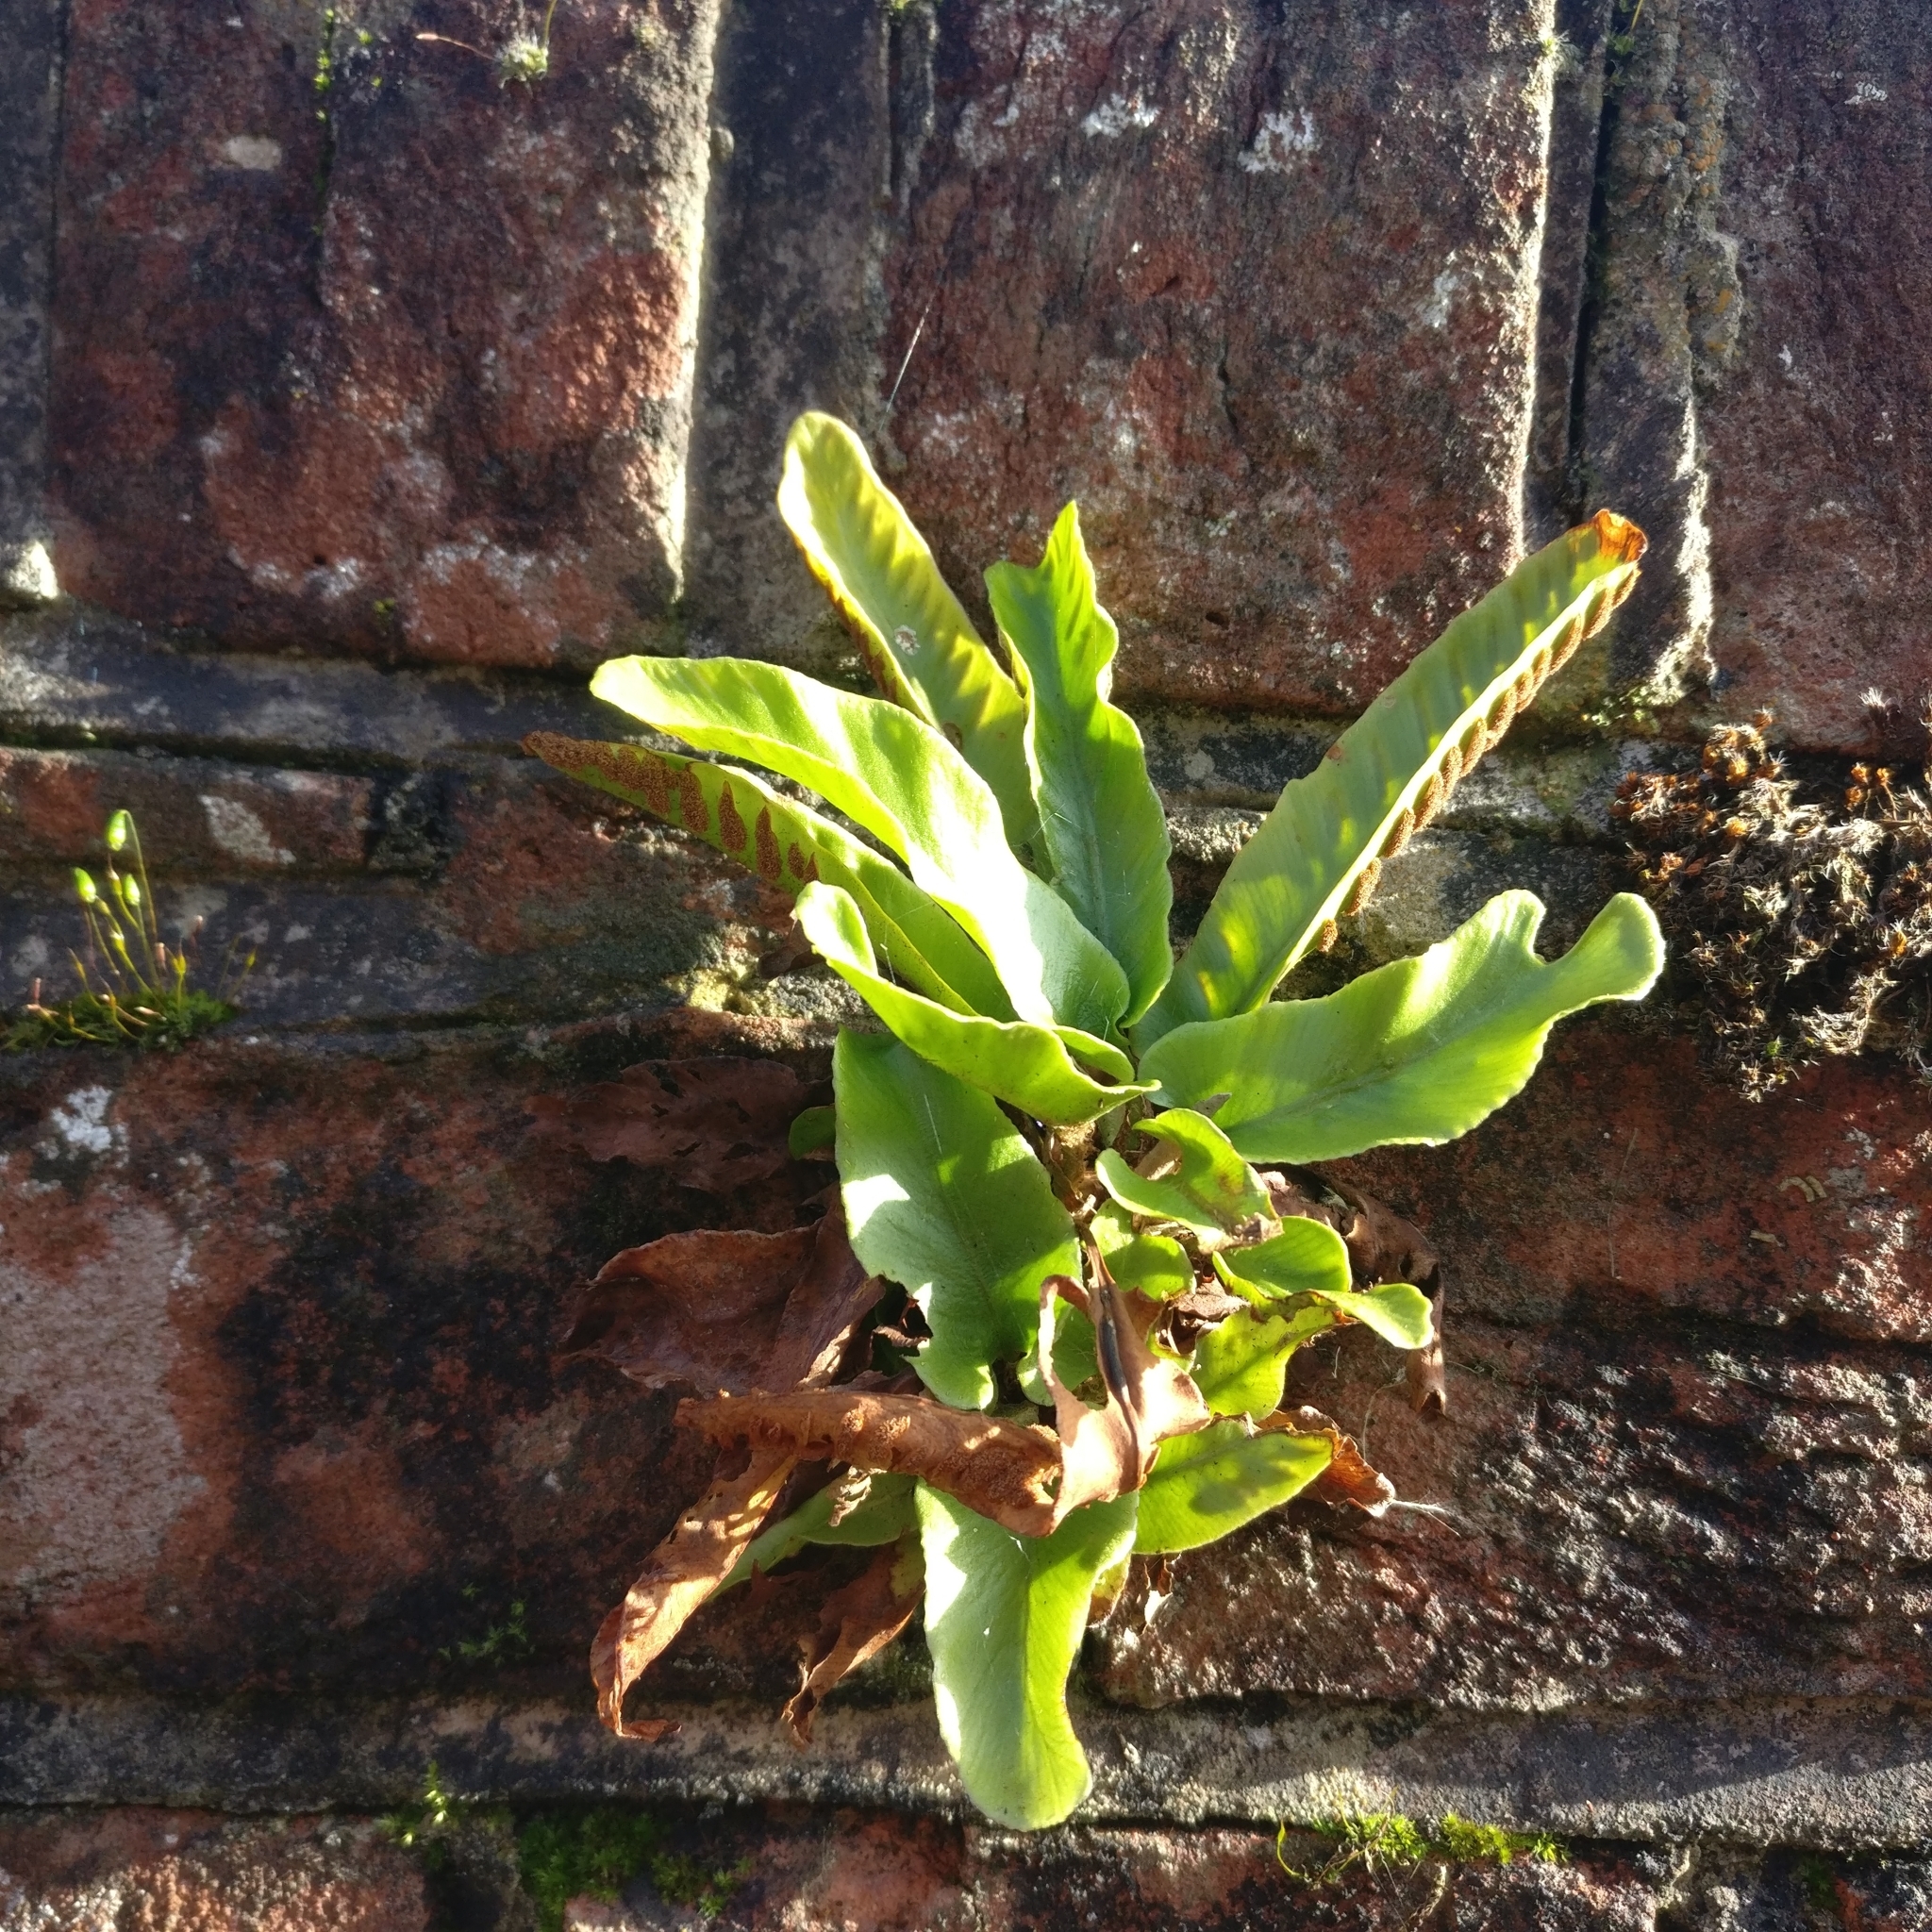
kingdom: Plantae
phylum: Tracheophyta
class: Polypodiopsida
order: Polypodiales
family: Aspleniaceae
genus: Asplenium
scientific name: Asplenium scolopendrium
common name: Hart's-tongue fern
